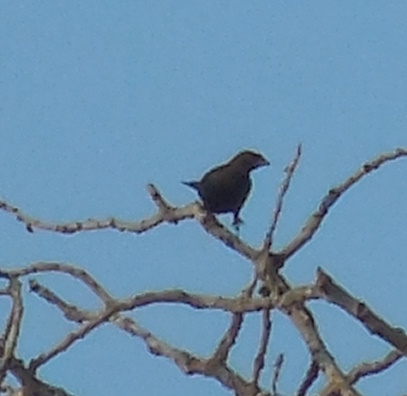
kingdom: Animalia
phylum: Chordata
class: Aves
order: Passeriformes
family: Icteridae
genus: Molothrus
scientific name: Molothrus ater
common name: Brown-headed cowbird
